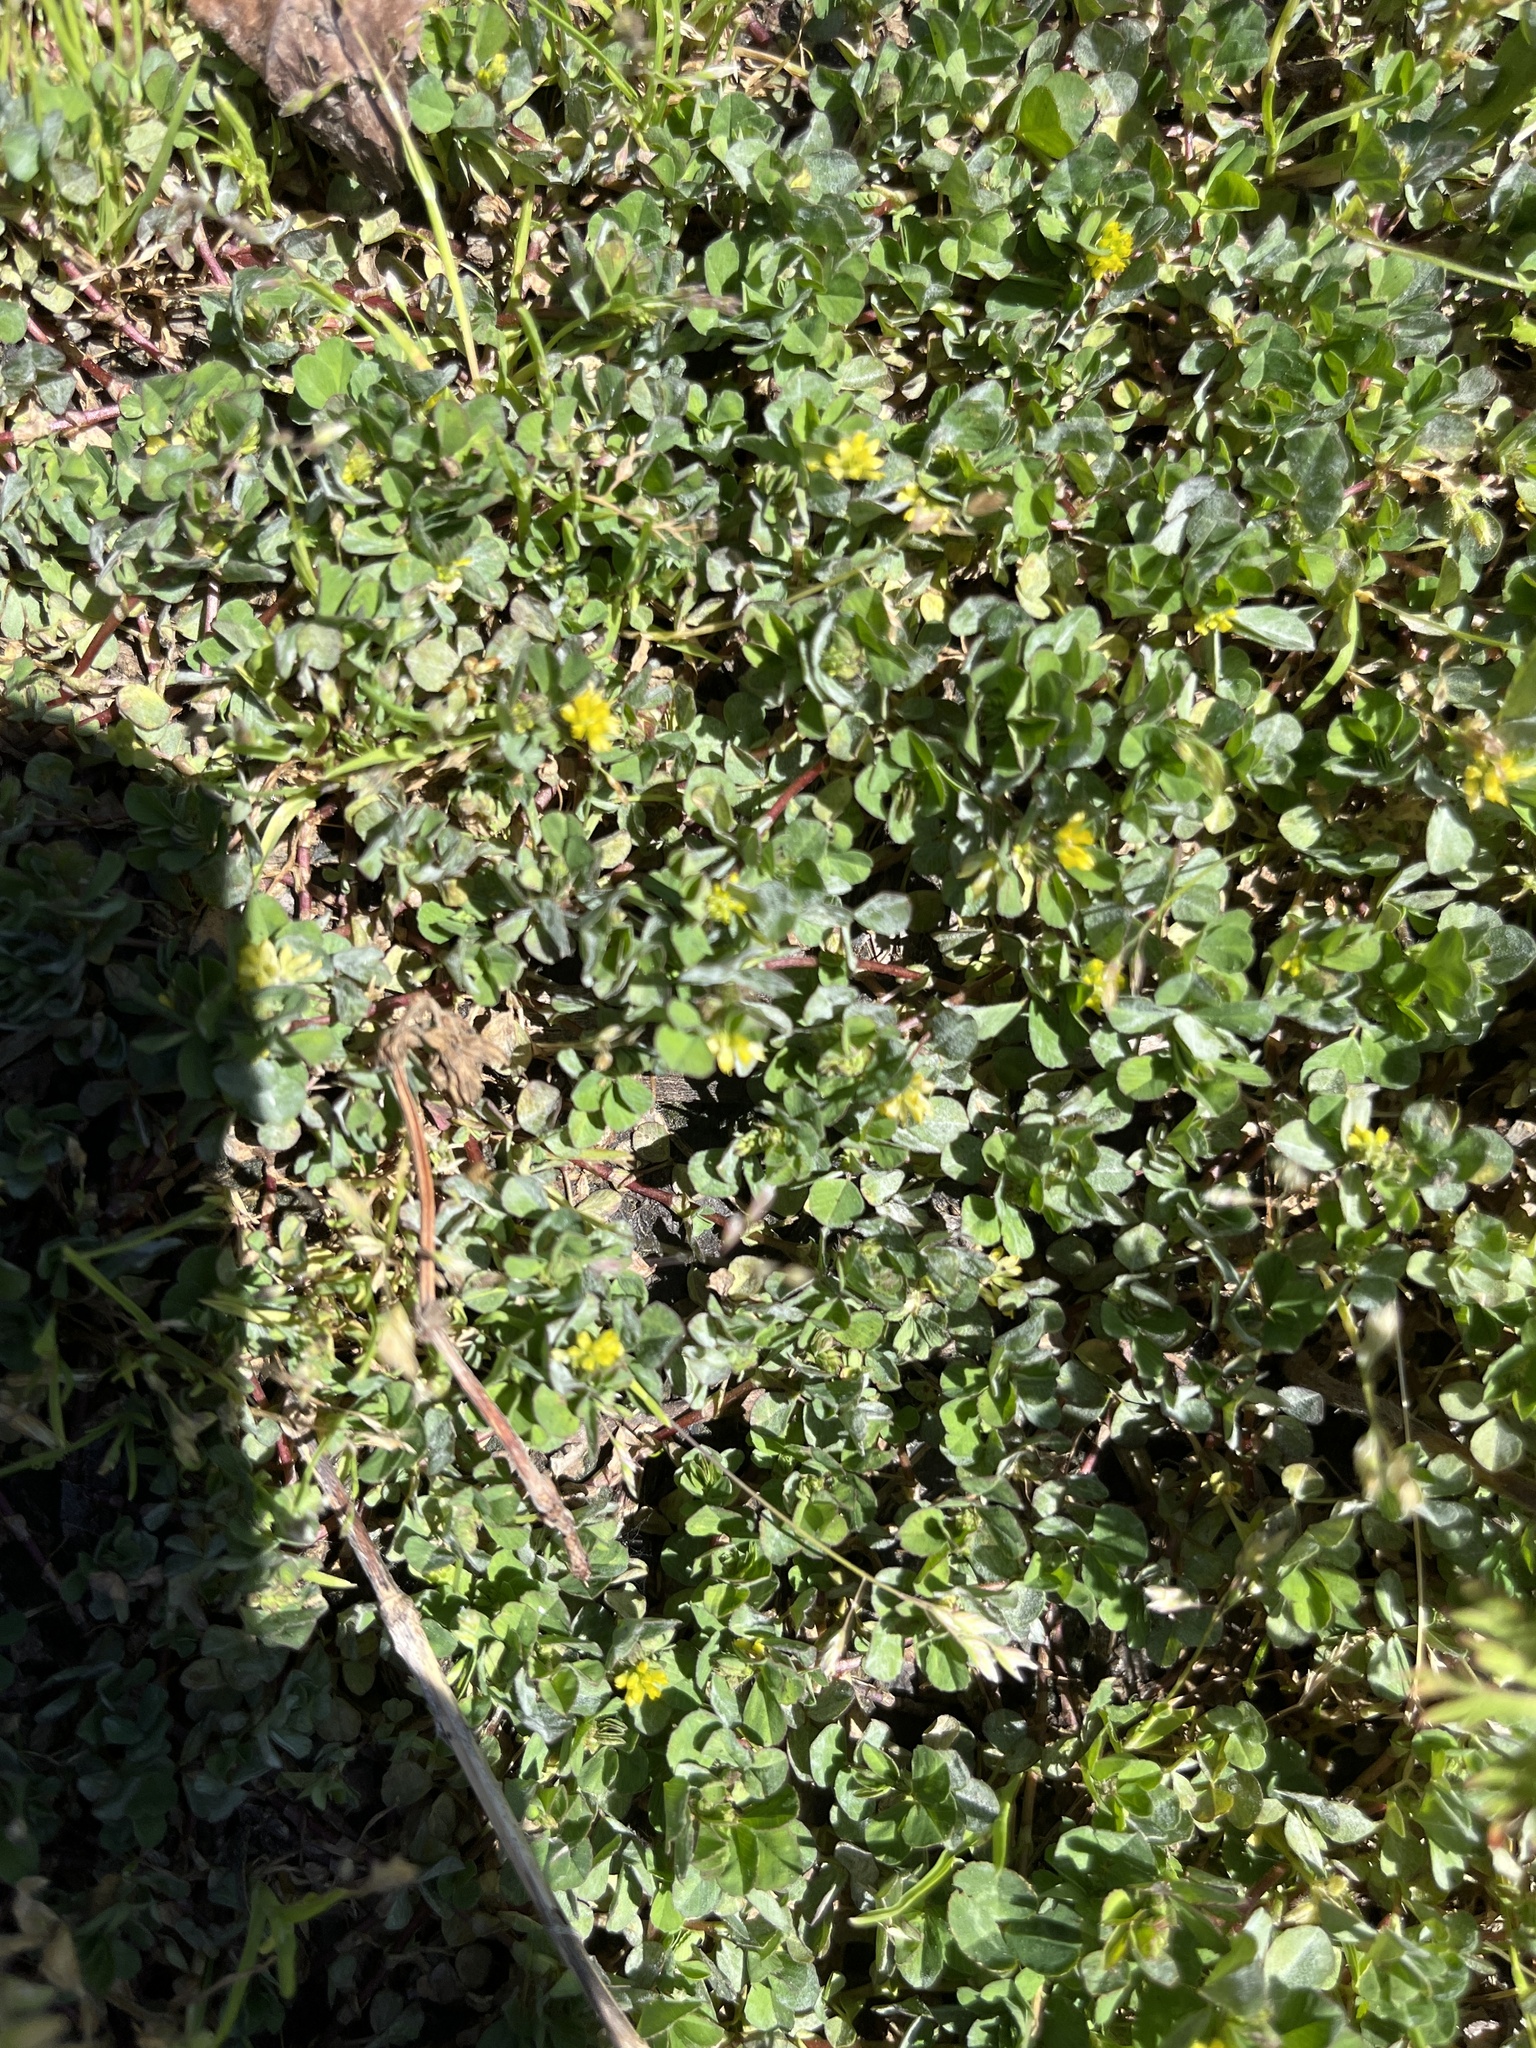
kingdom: Plantae
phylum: Tracheophyta
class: Magnoliopsida
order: Fabales
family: Fabaceae
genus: Trifolium
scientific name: Trifolium dubium
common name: Suckling clover
